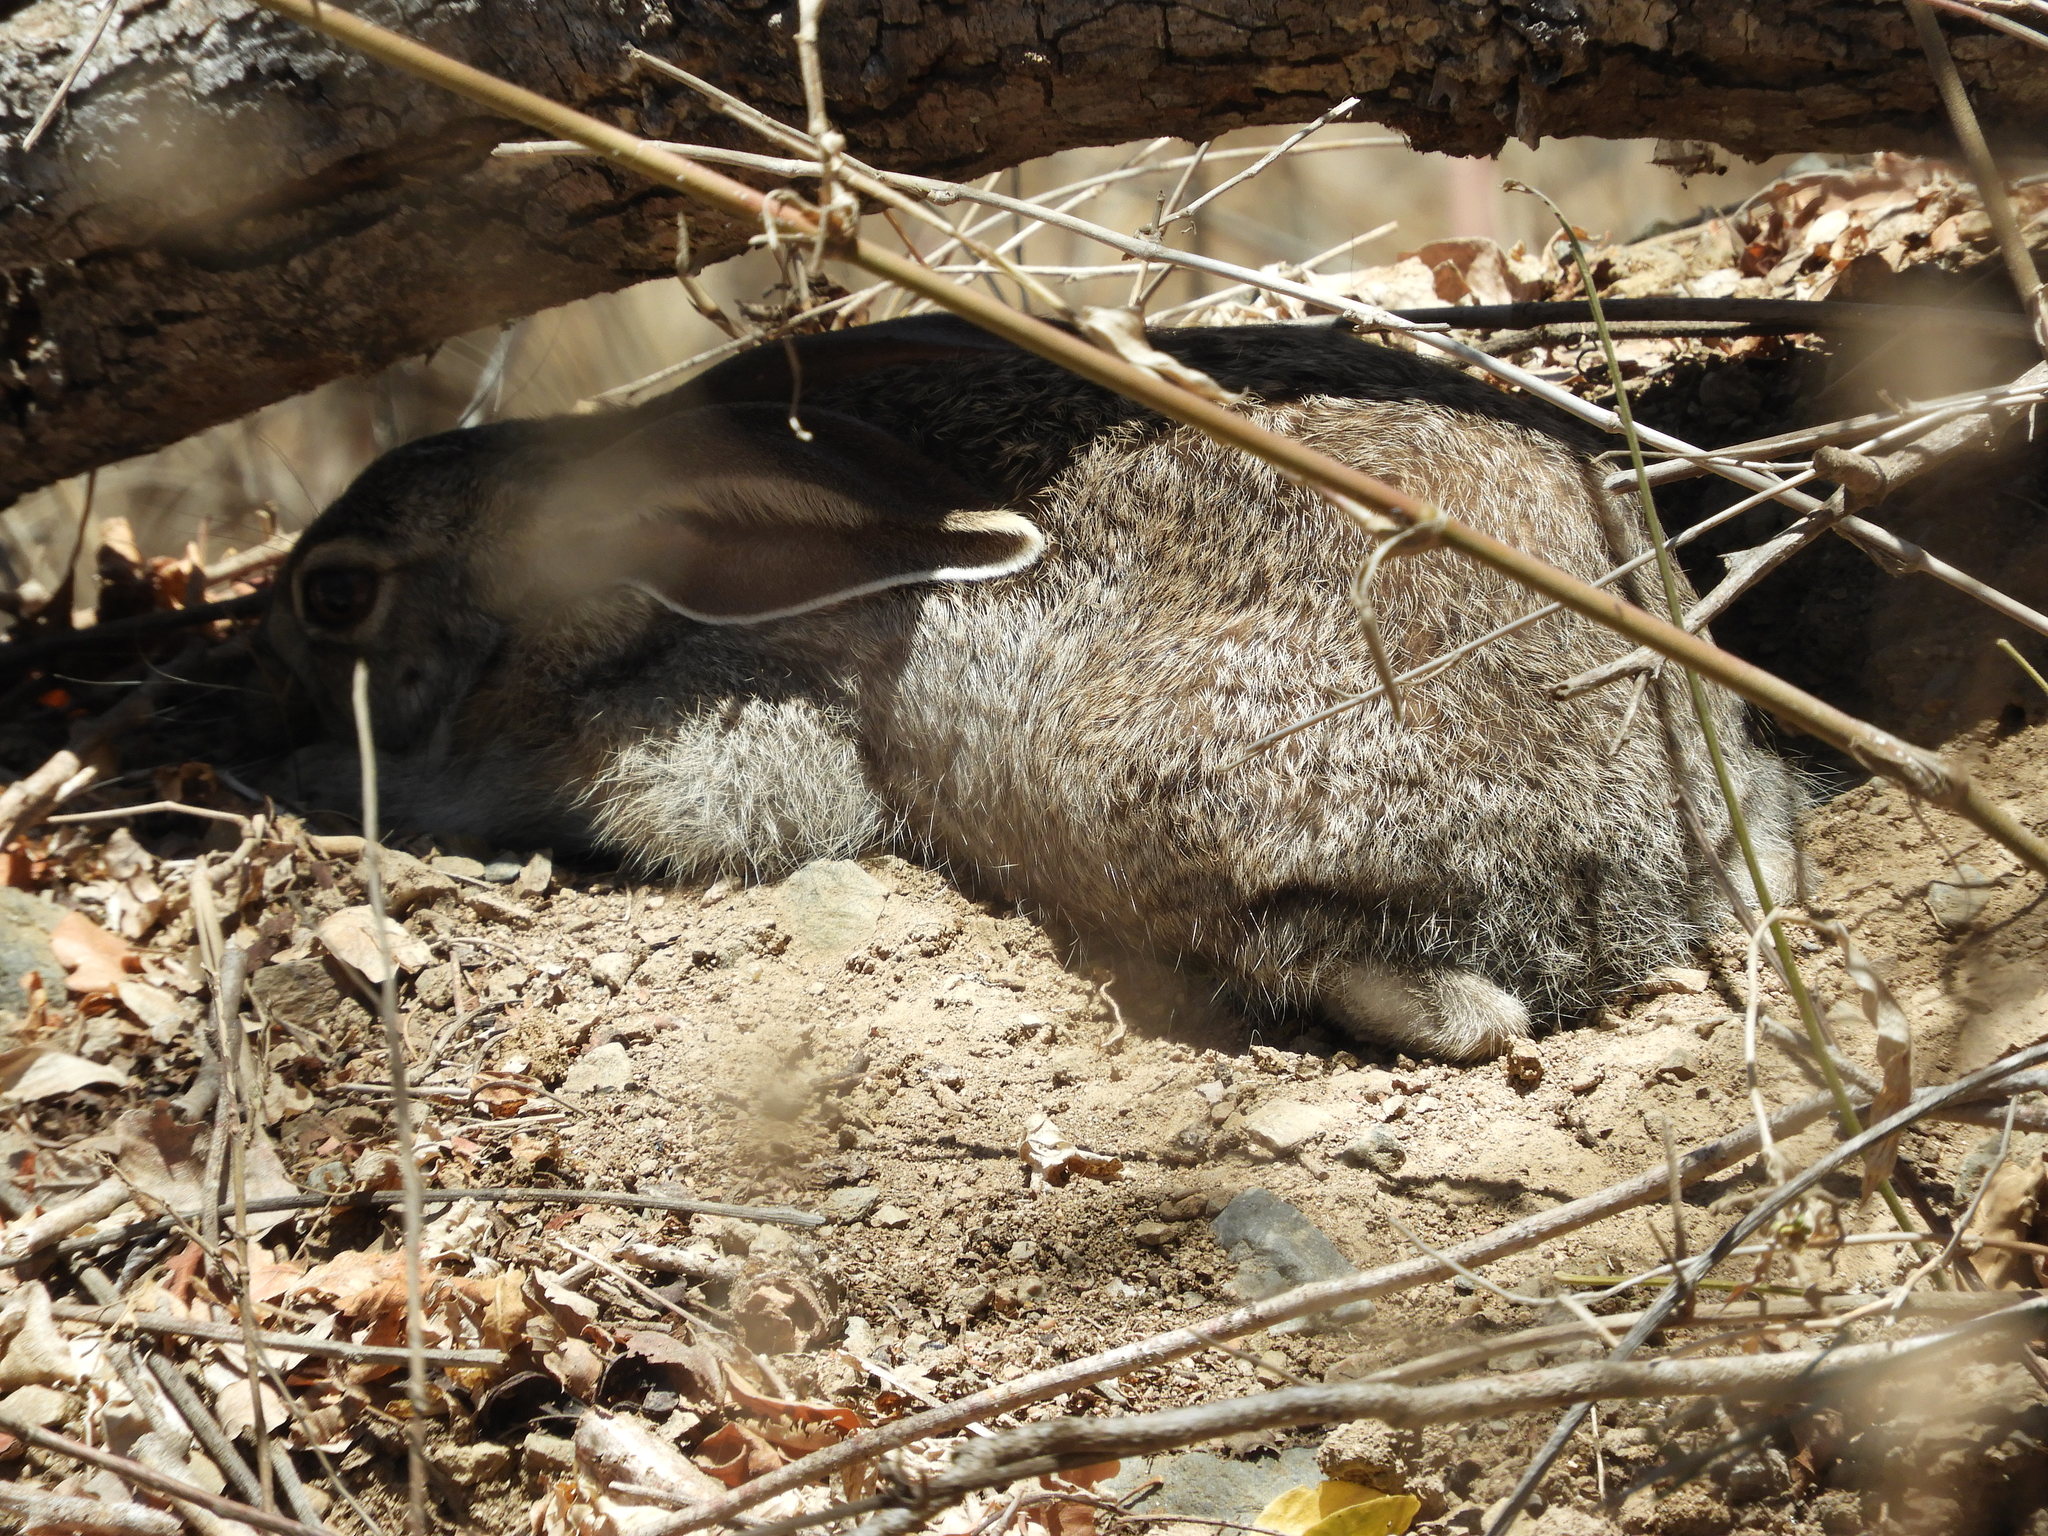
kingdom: Animalia
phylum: Chordata
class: Mammalia
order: Lagomorpha
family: Leporidae
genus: Lepus
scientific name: Lepus alleni
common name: Antelope jackrabbit
